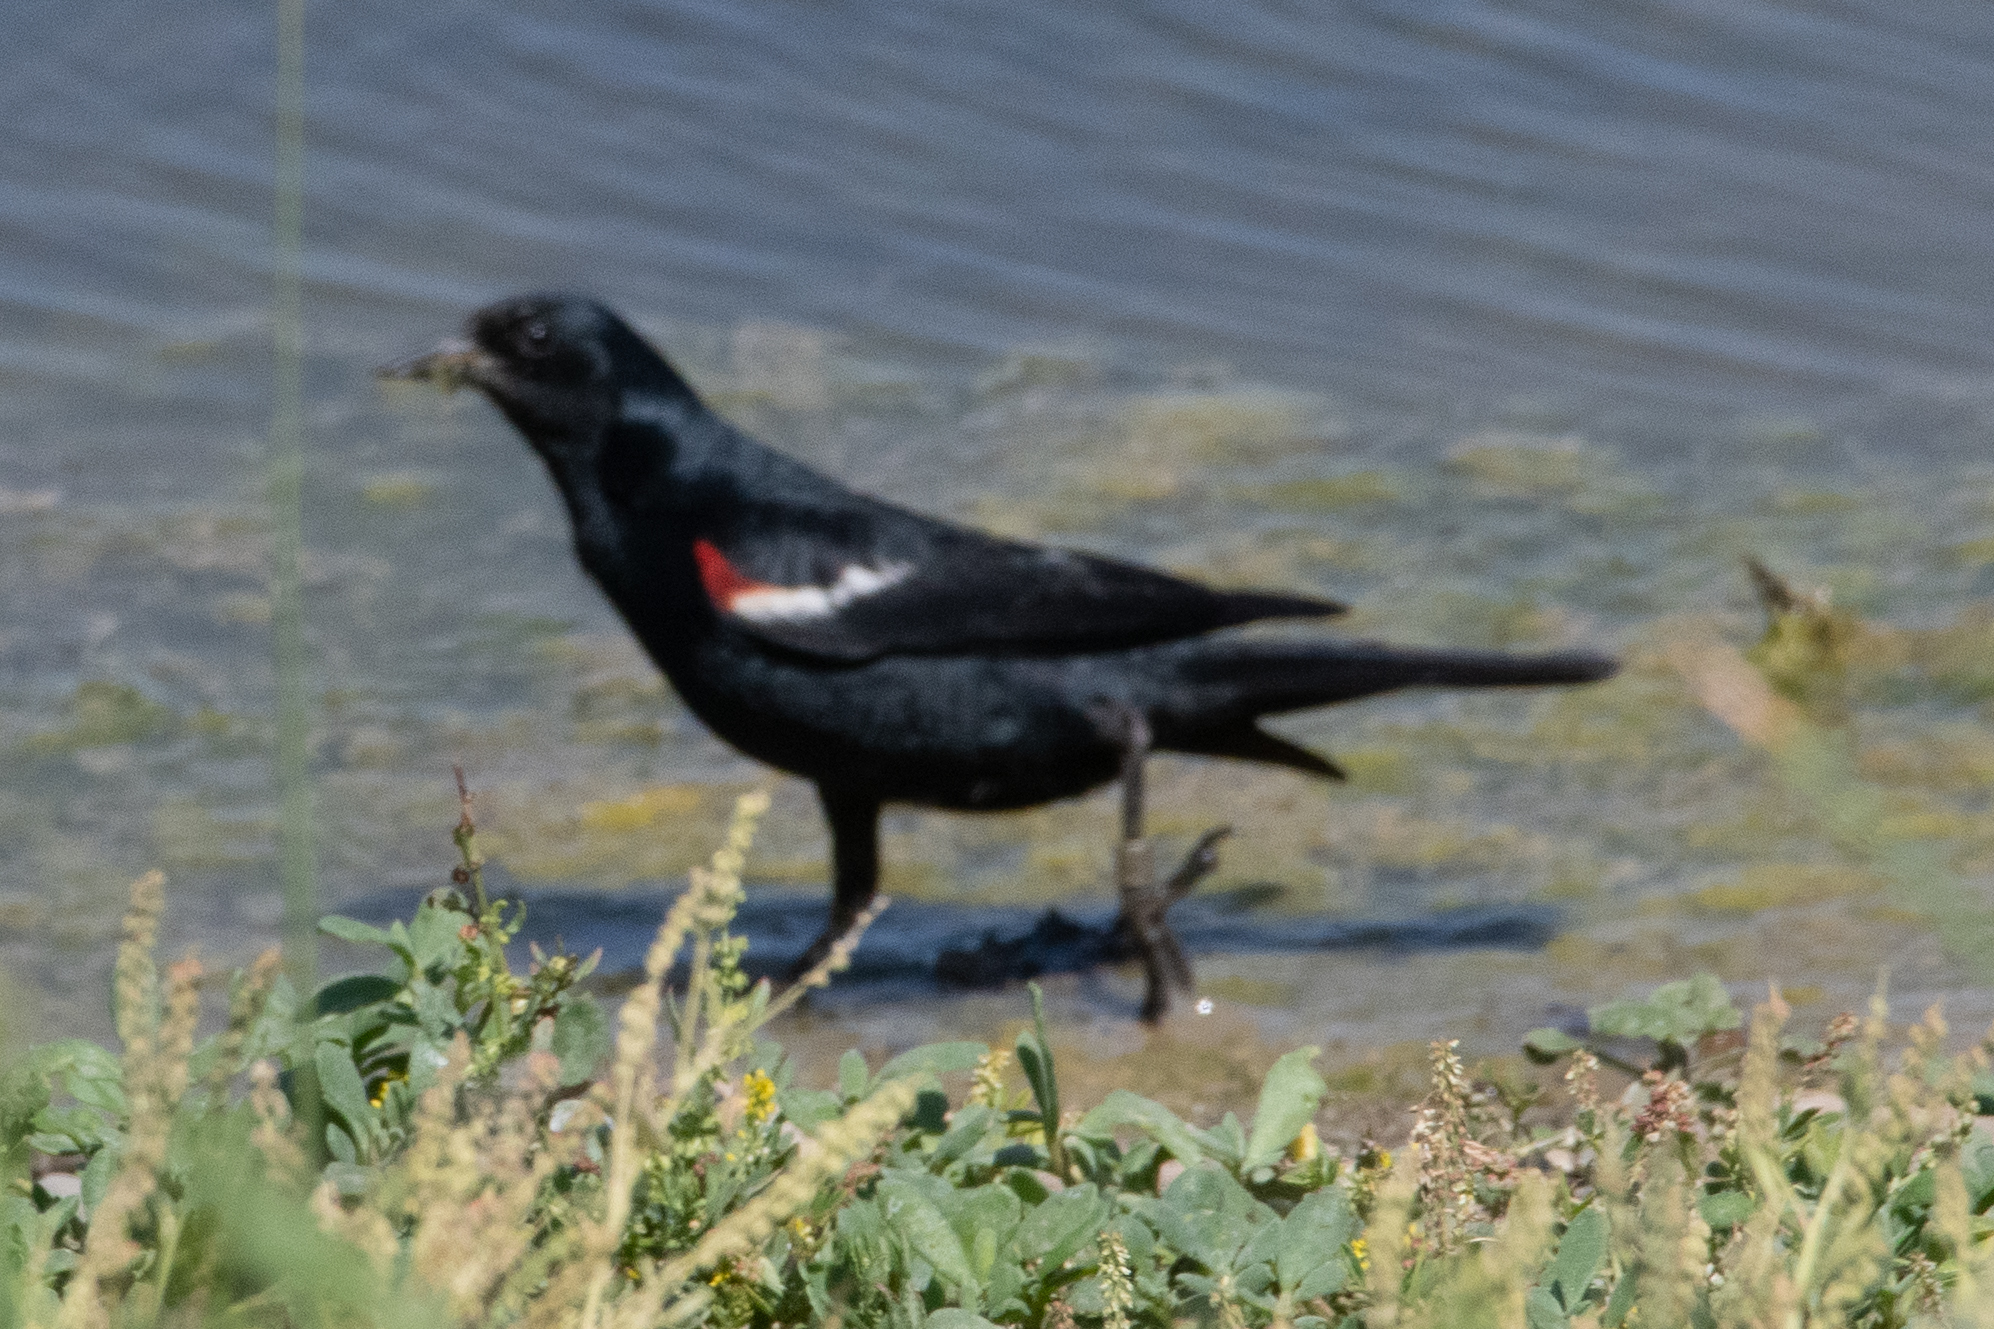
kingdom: Animalia
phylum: Chordata
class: Aves
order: Passeriformes
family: Icteridae
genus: Agelaius
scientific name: Agelaius tricolor
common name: Tricolored blackbird
